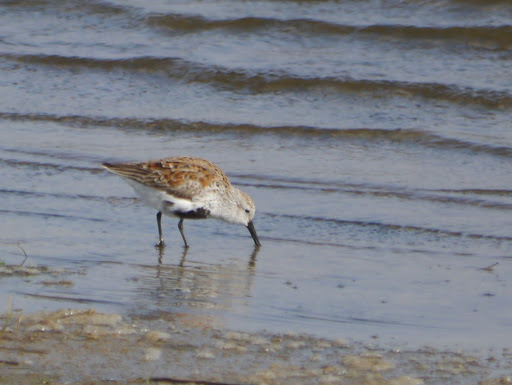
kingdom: Animalia
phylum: Chordata
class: Aves
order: Charadriiformes
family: Scolopacidae
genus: Calidris
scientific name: Calidris alpina
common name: Dunlin
